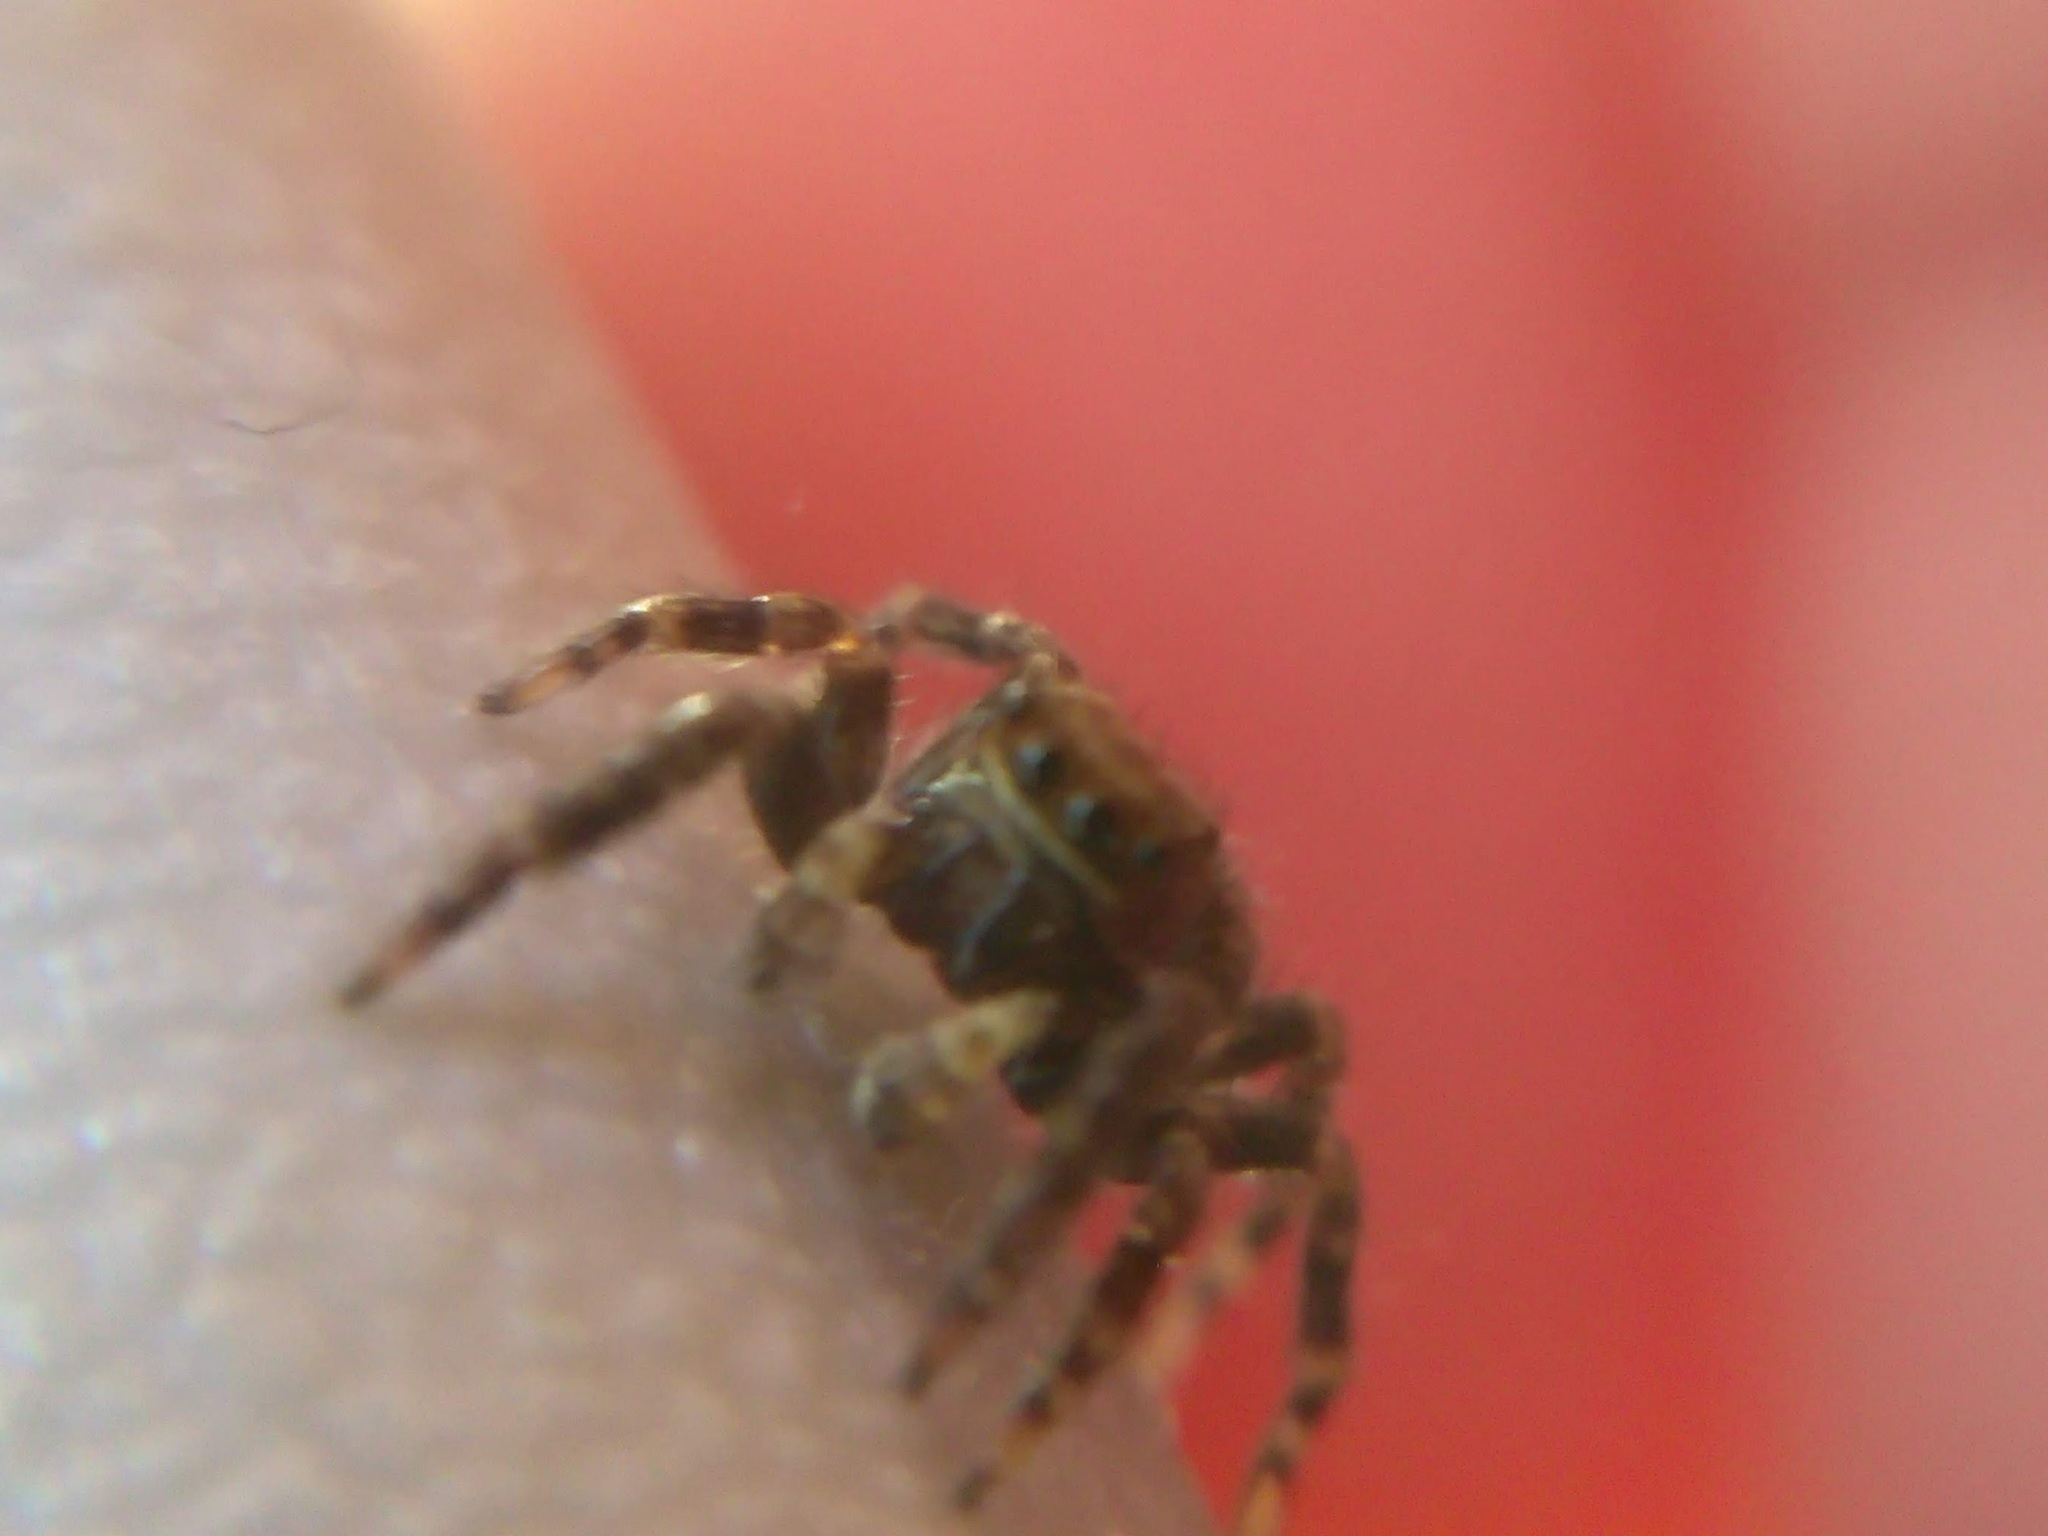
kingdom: Animalia
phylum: Arthropoda
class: Arachnida
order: Araneae
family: Salticidae
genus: Pseudeuophrys
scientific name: Pseudeuophrys erratica
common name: Jumping spider
